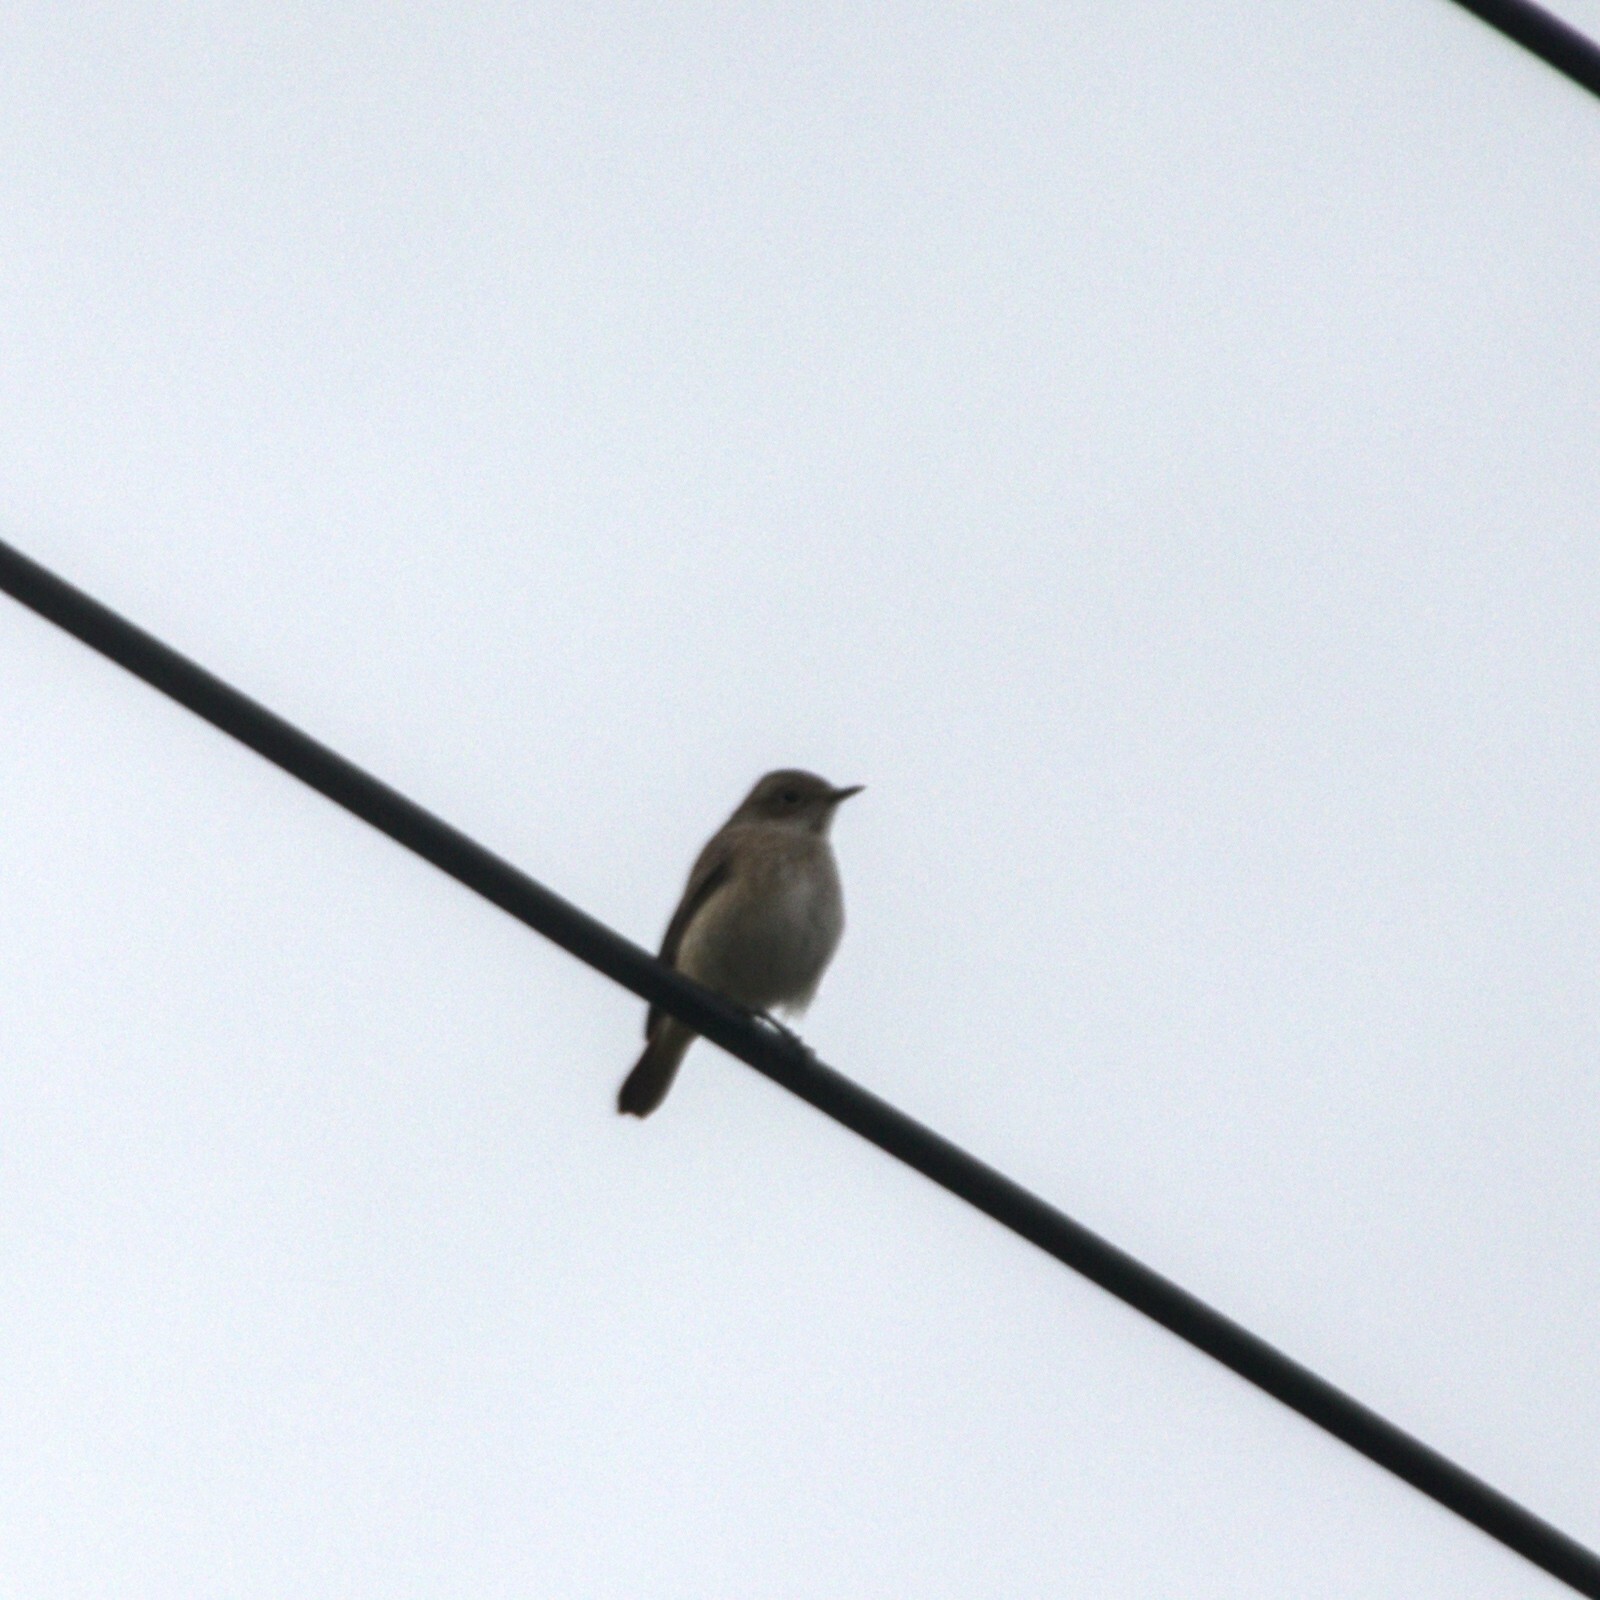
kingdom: Animalia
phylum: Chordata
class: Aves
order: Passeriformes
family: Muscicapidae
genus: Muscicapa
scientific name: Muscicapa striata
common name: Spotted flycatcher
